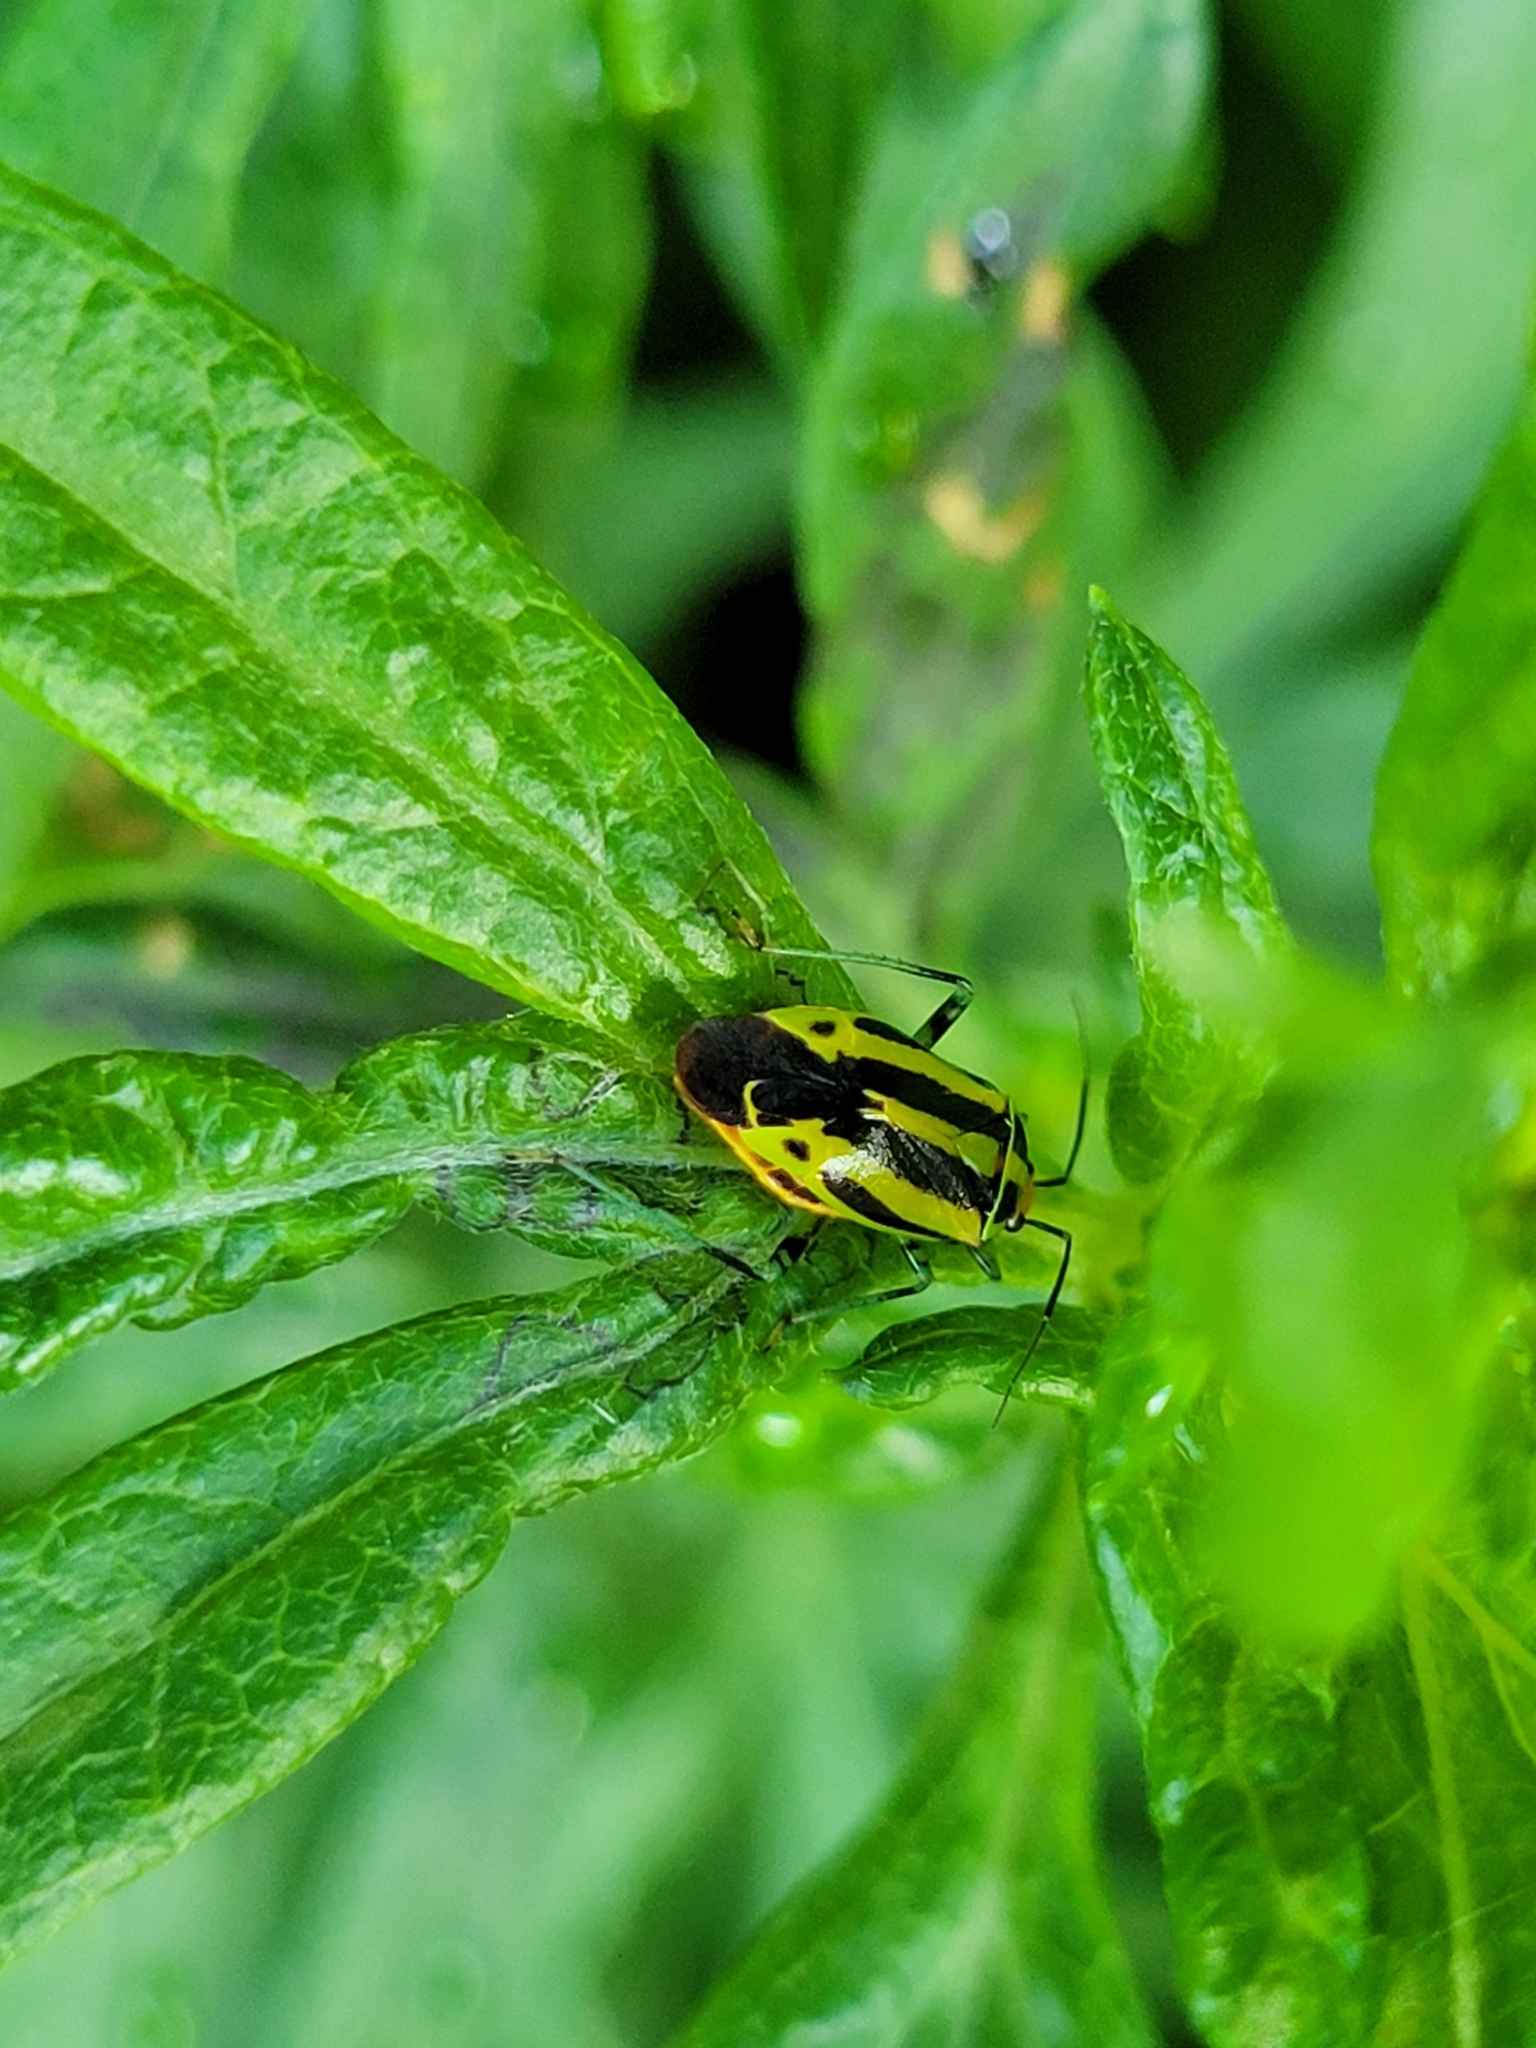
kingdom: Animalia
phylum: Arthropoda
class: Insecta
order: Hemiptera
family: Miridae
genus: Poecilocapsus
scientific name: Poecilocapsus lineatus
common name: Four-lined plant bug
